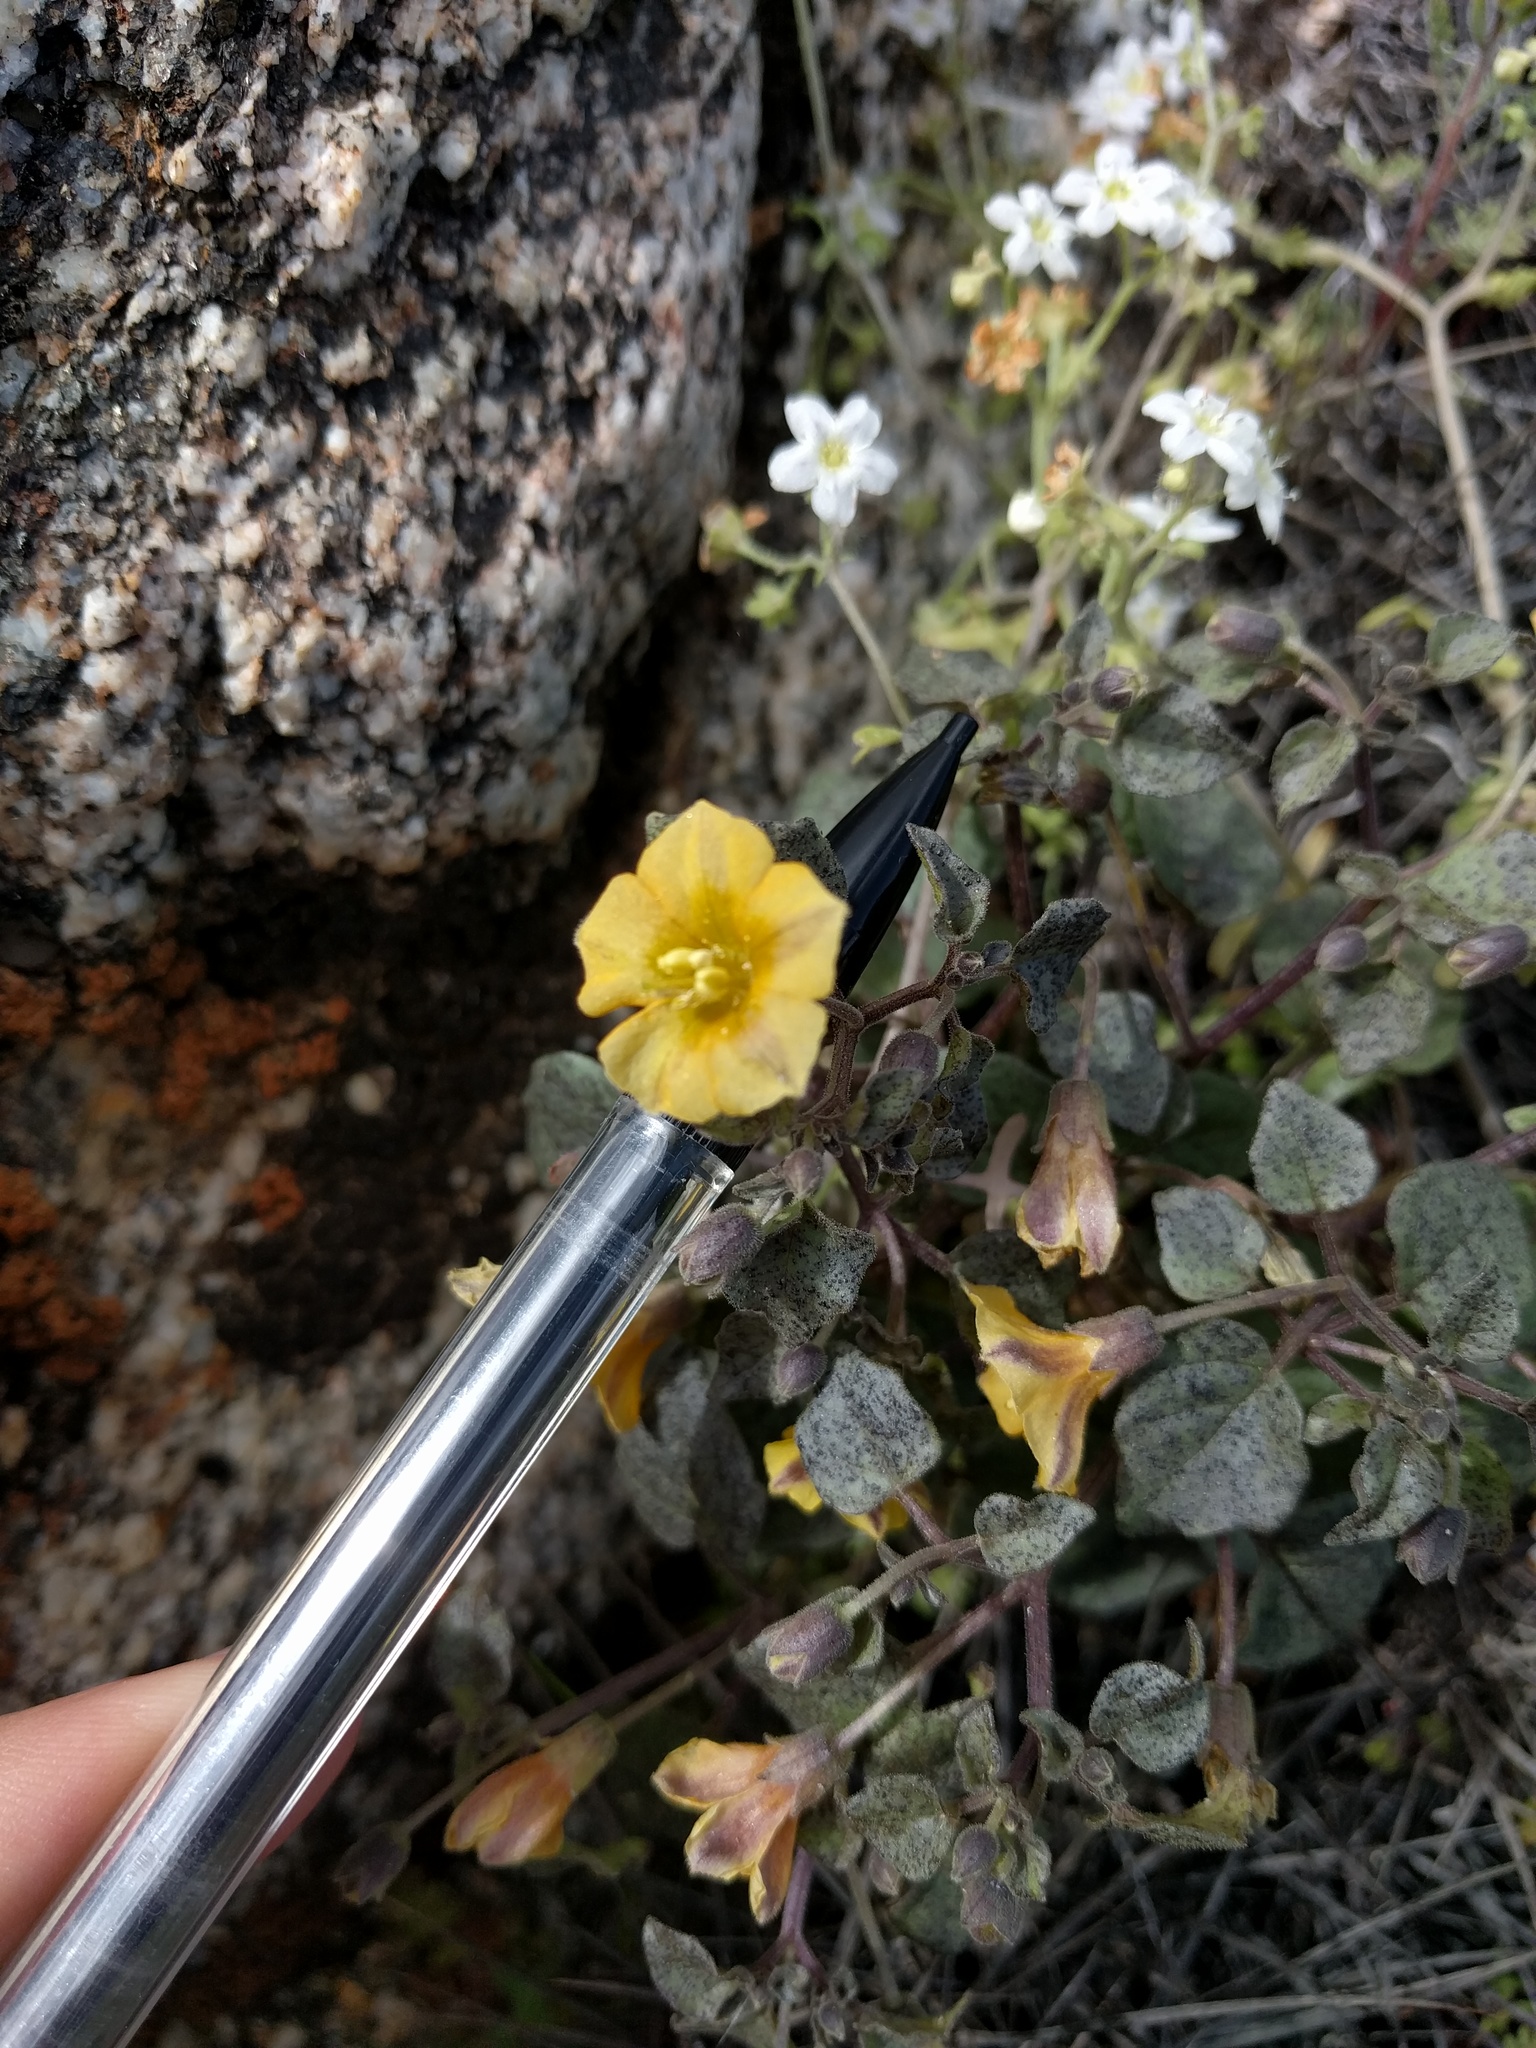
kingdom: Plantae
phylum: Tracheophyta
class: Magnoliopsida
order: Solanales
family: Solanaceae
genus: Physalis
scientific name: Physalis crassifolia
